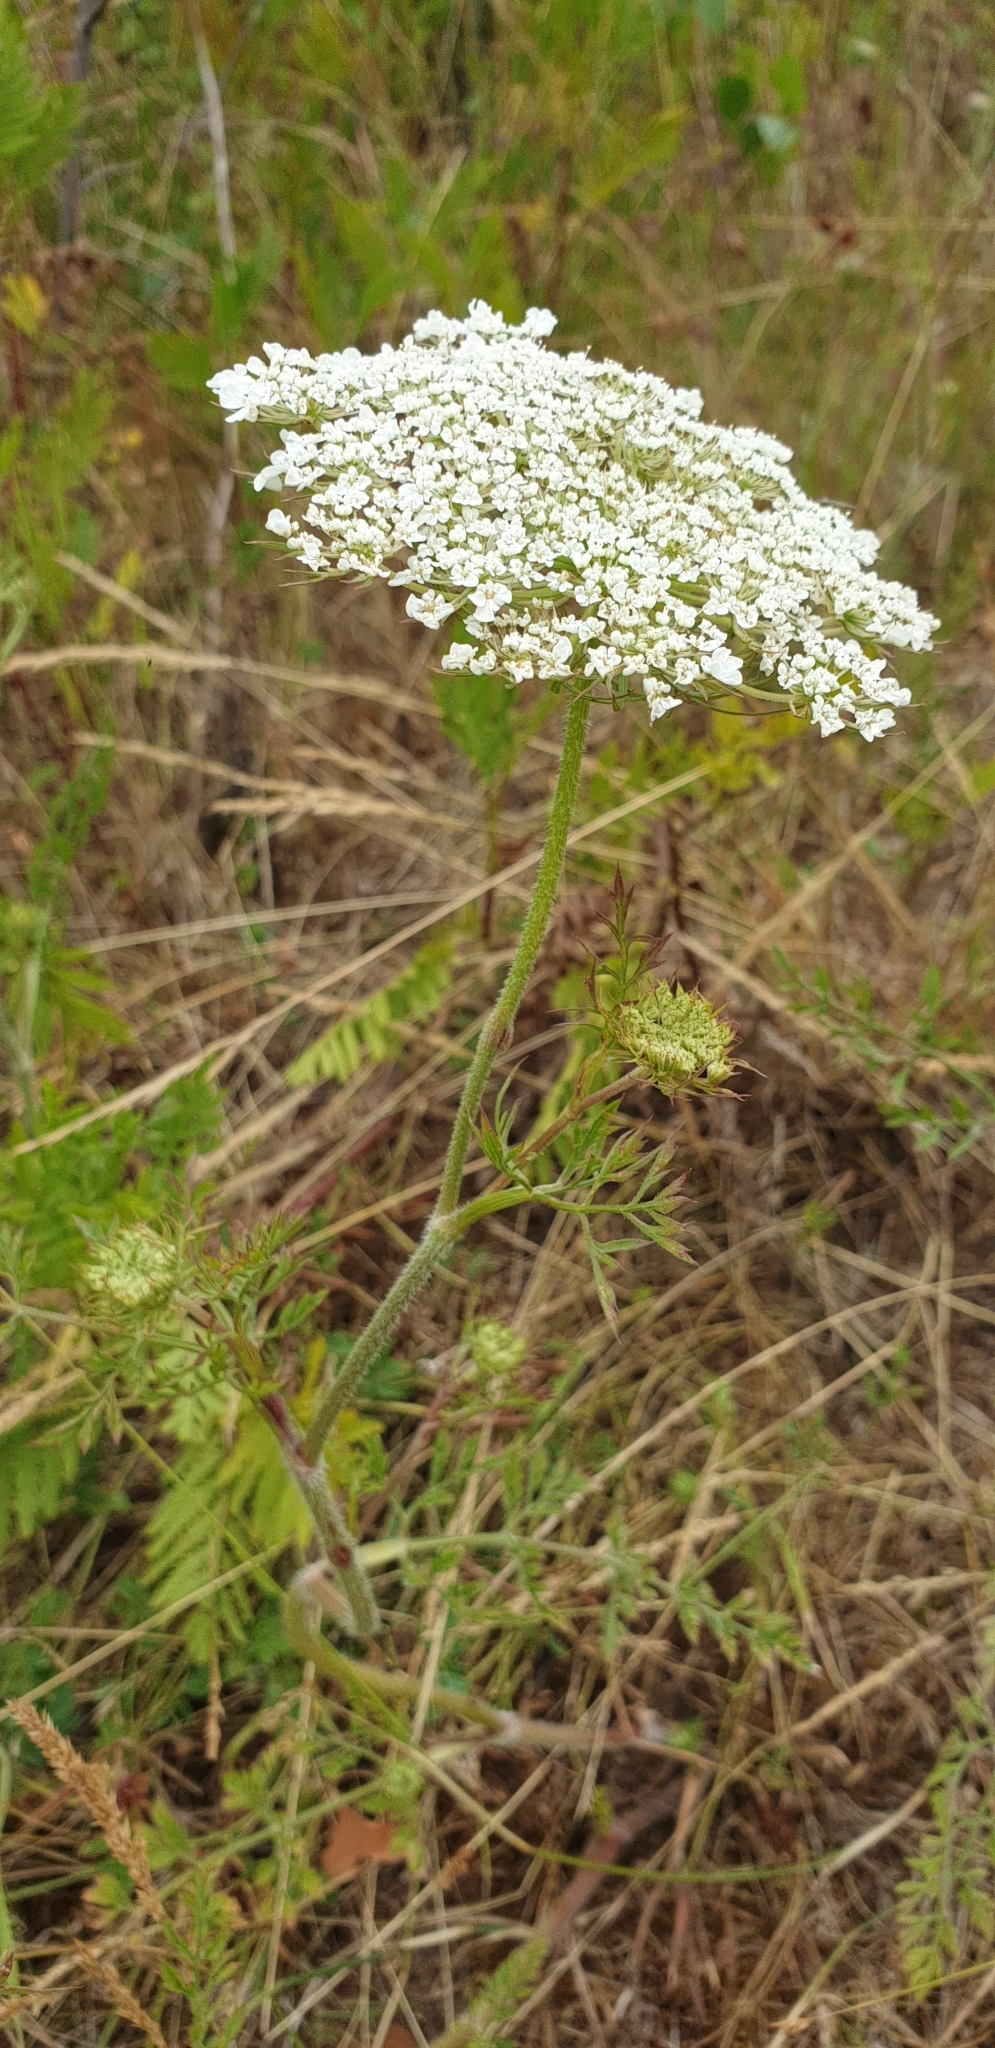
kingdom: Plantae
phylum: Tracheophyta
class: Magnoliopsida
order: Apiales
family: Apiaceae
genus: Daucus
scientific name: Daucus carota
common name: Wild carrot
